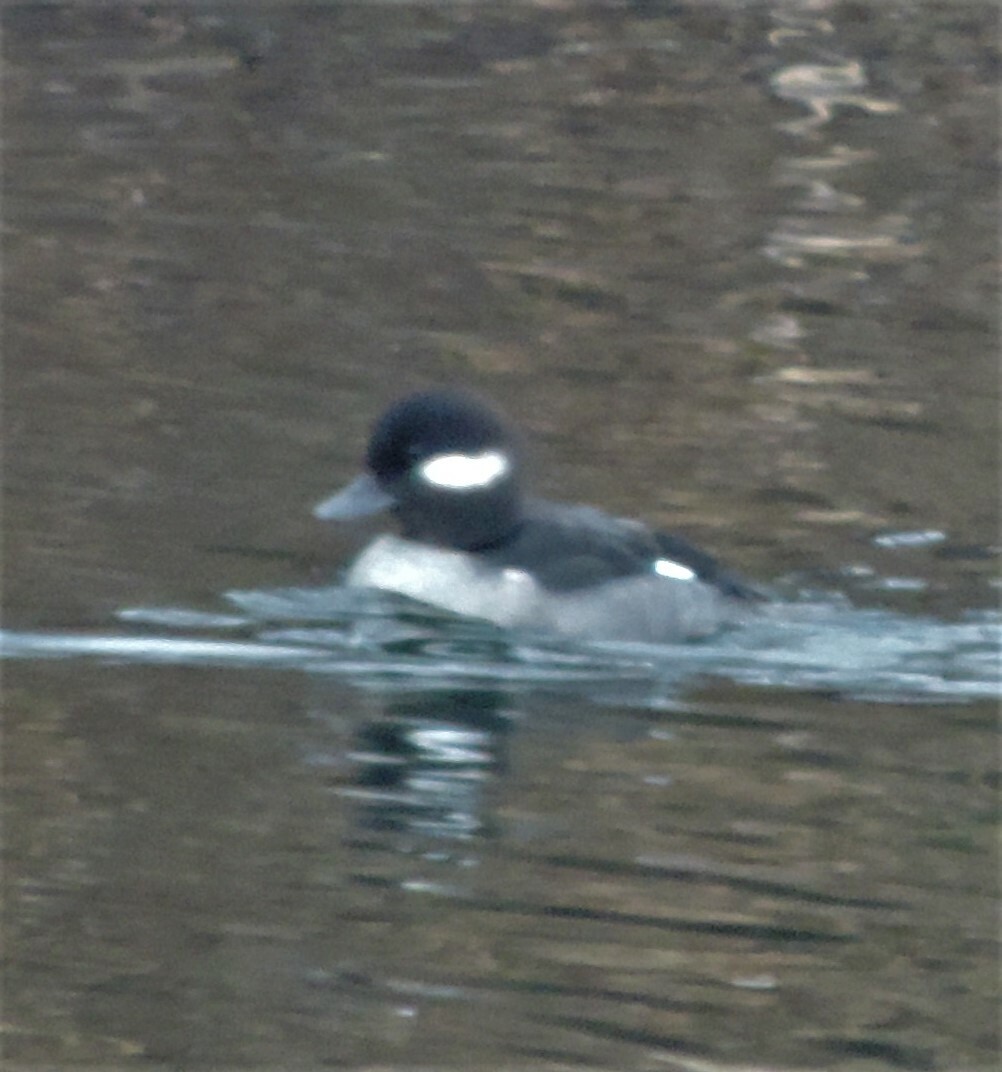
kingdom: Animalia
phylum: Chordata
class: Aves
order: Anseriformes
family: Anatidae
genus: Bucephala
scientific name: Bucephala albeola
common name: Bufflehead
